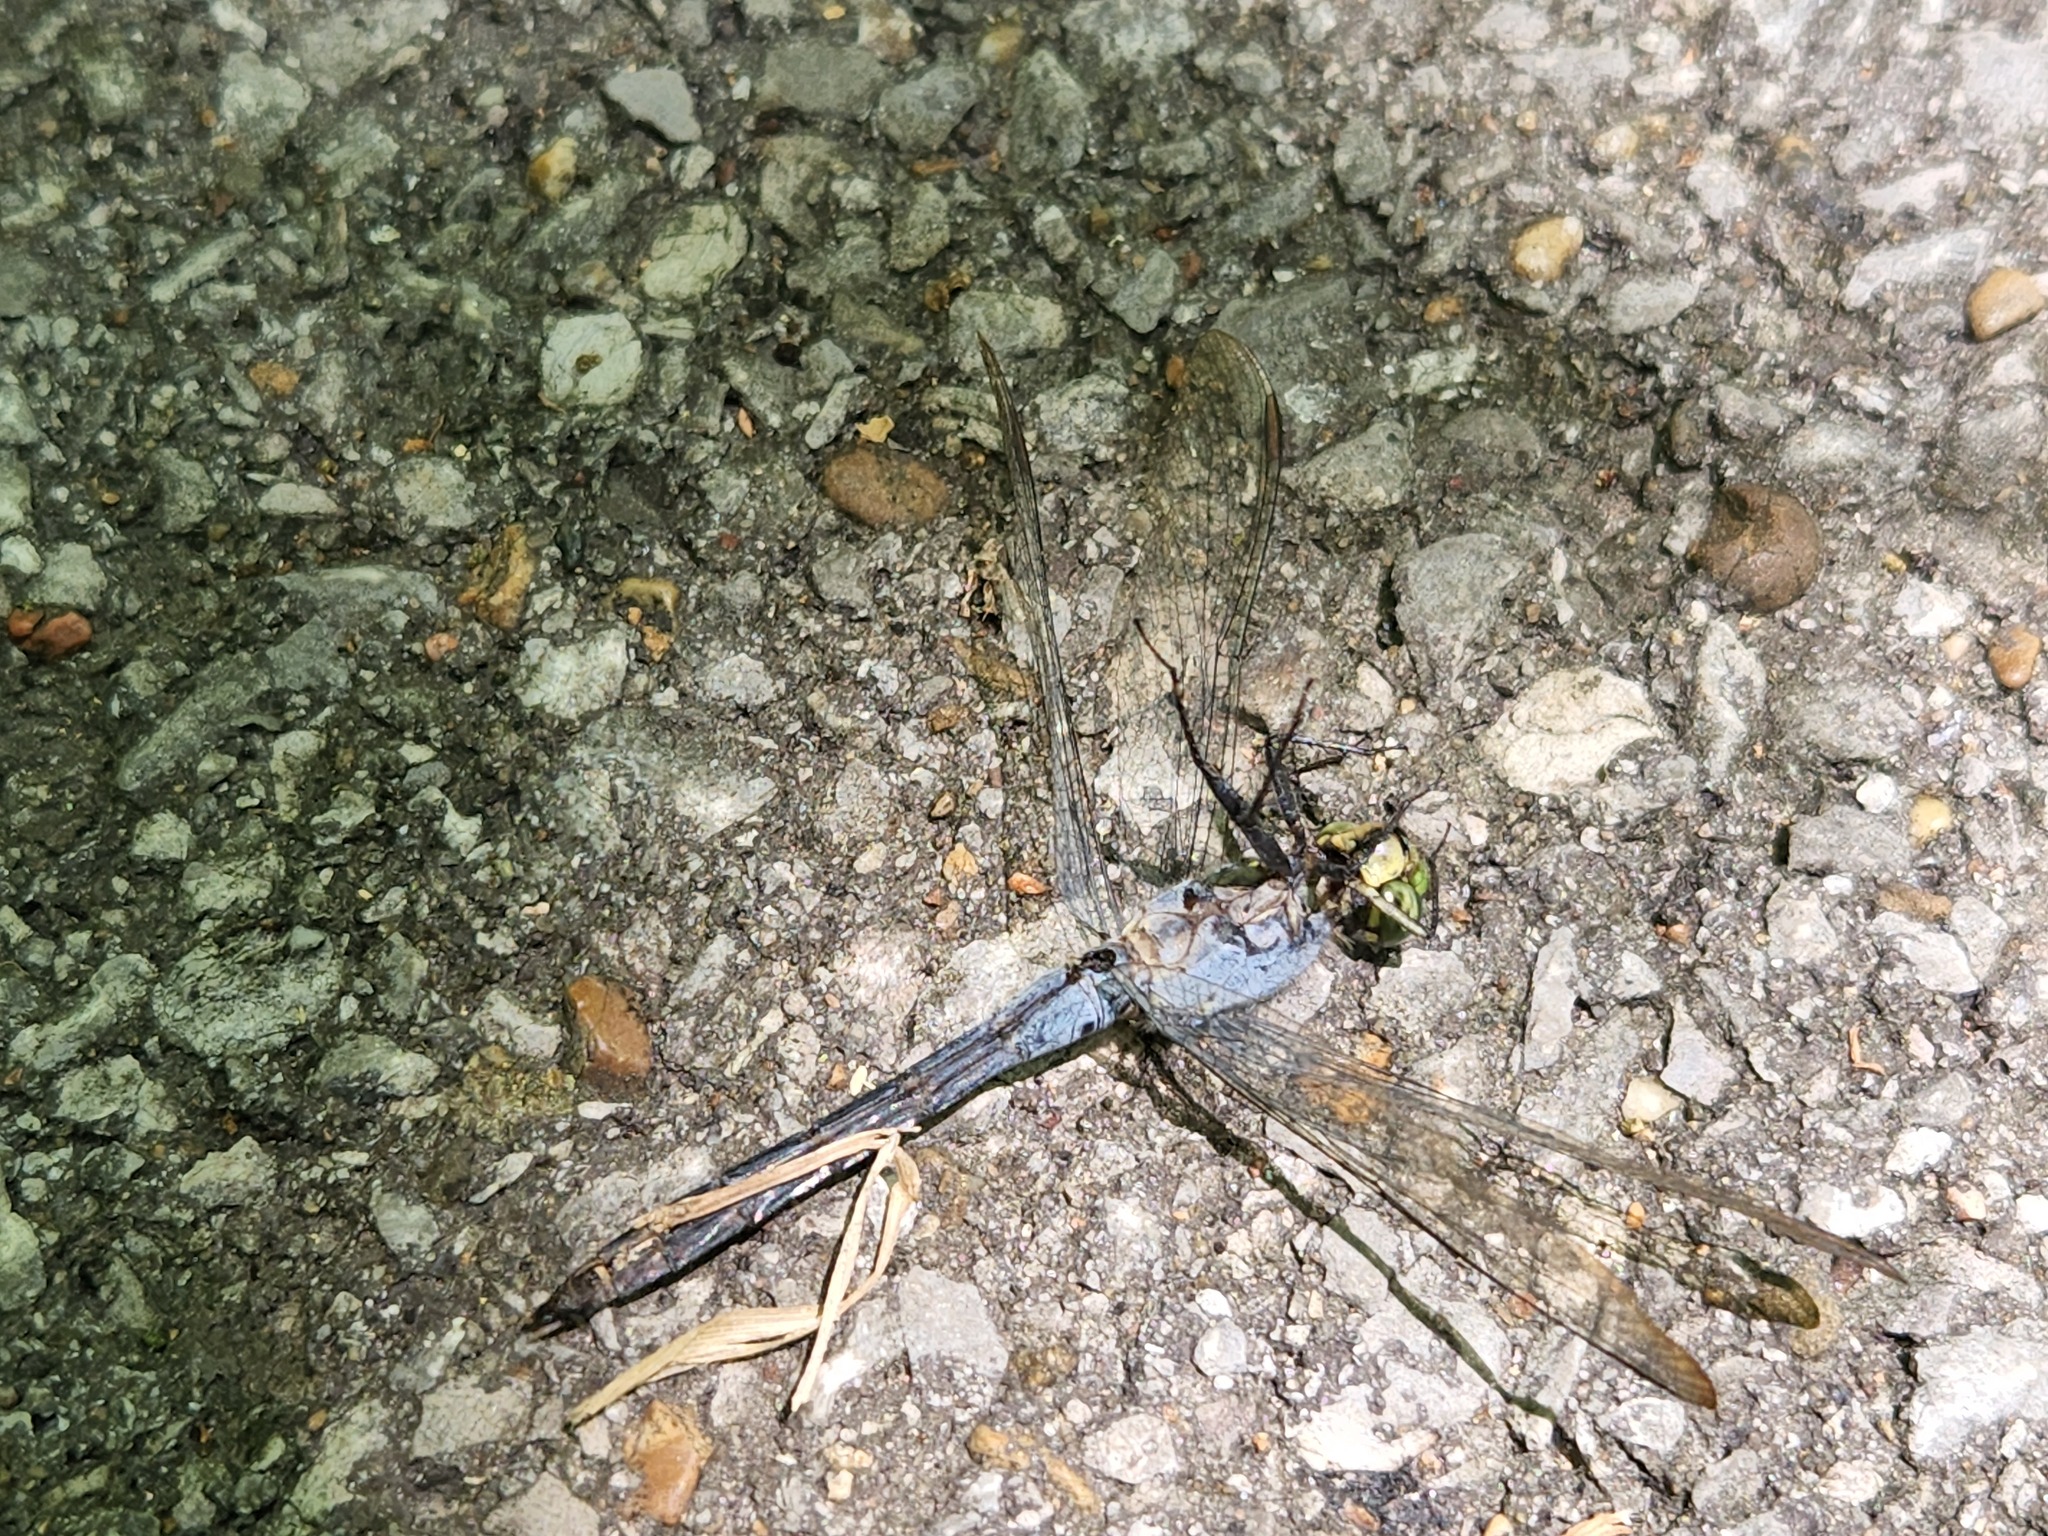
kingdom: Animalia
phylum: Arthropoda
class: Insecta
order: Odonata
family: Libellulidae
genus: Erythemis
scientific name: Erythemis simplicicollis
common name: Eastern pondhawk
